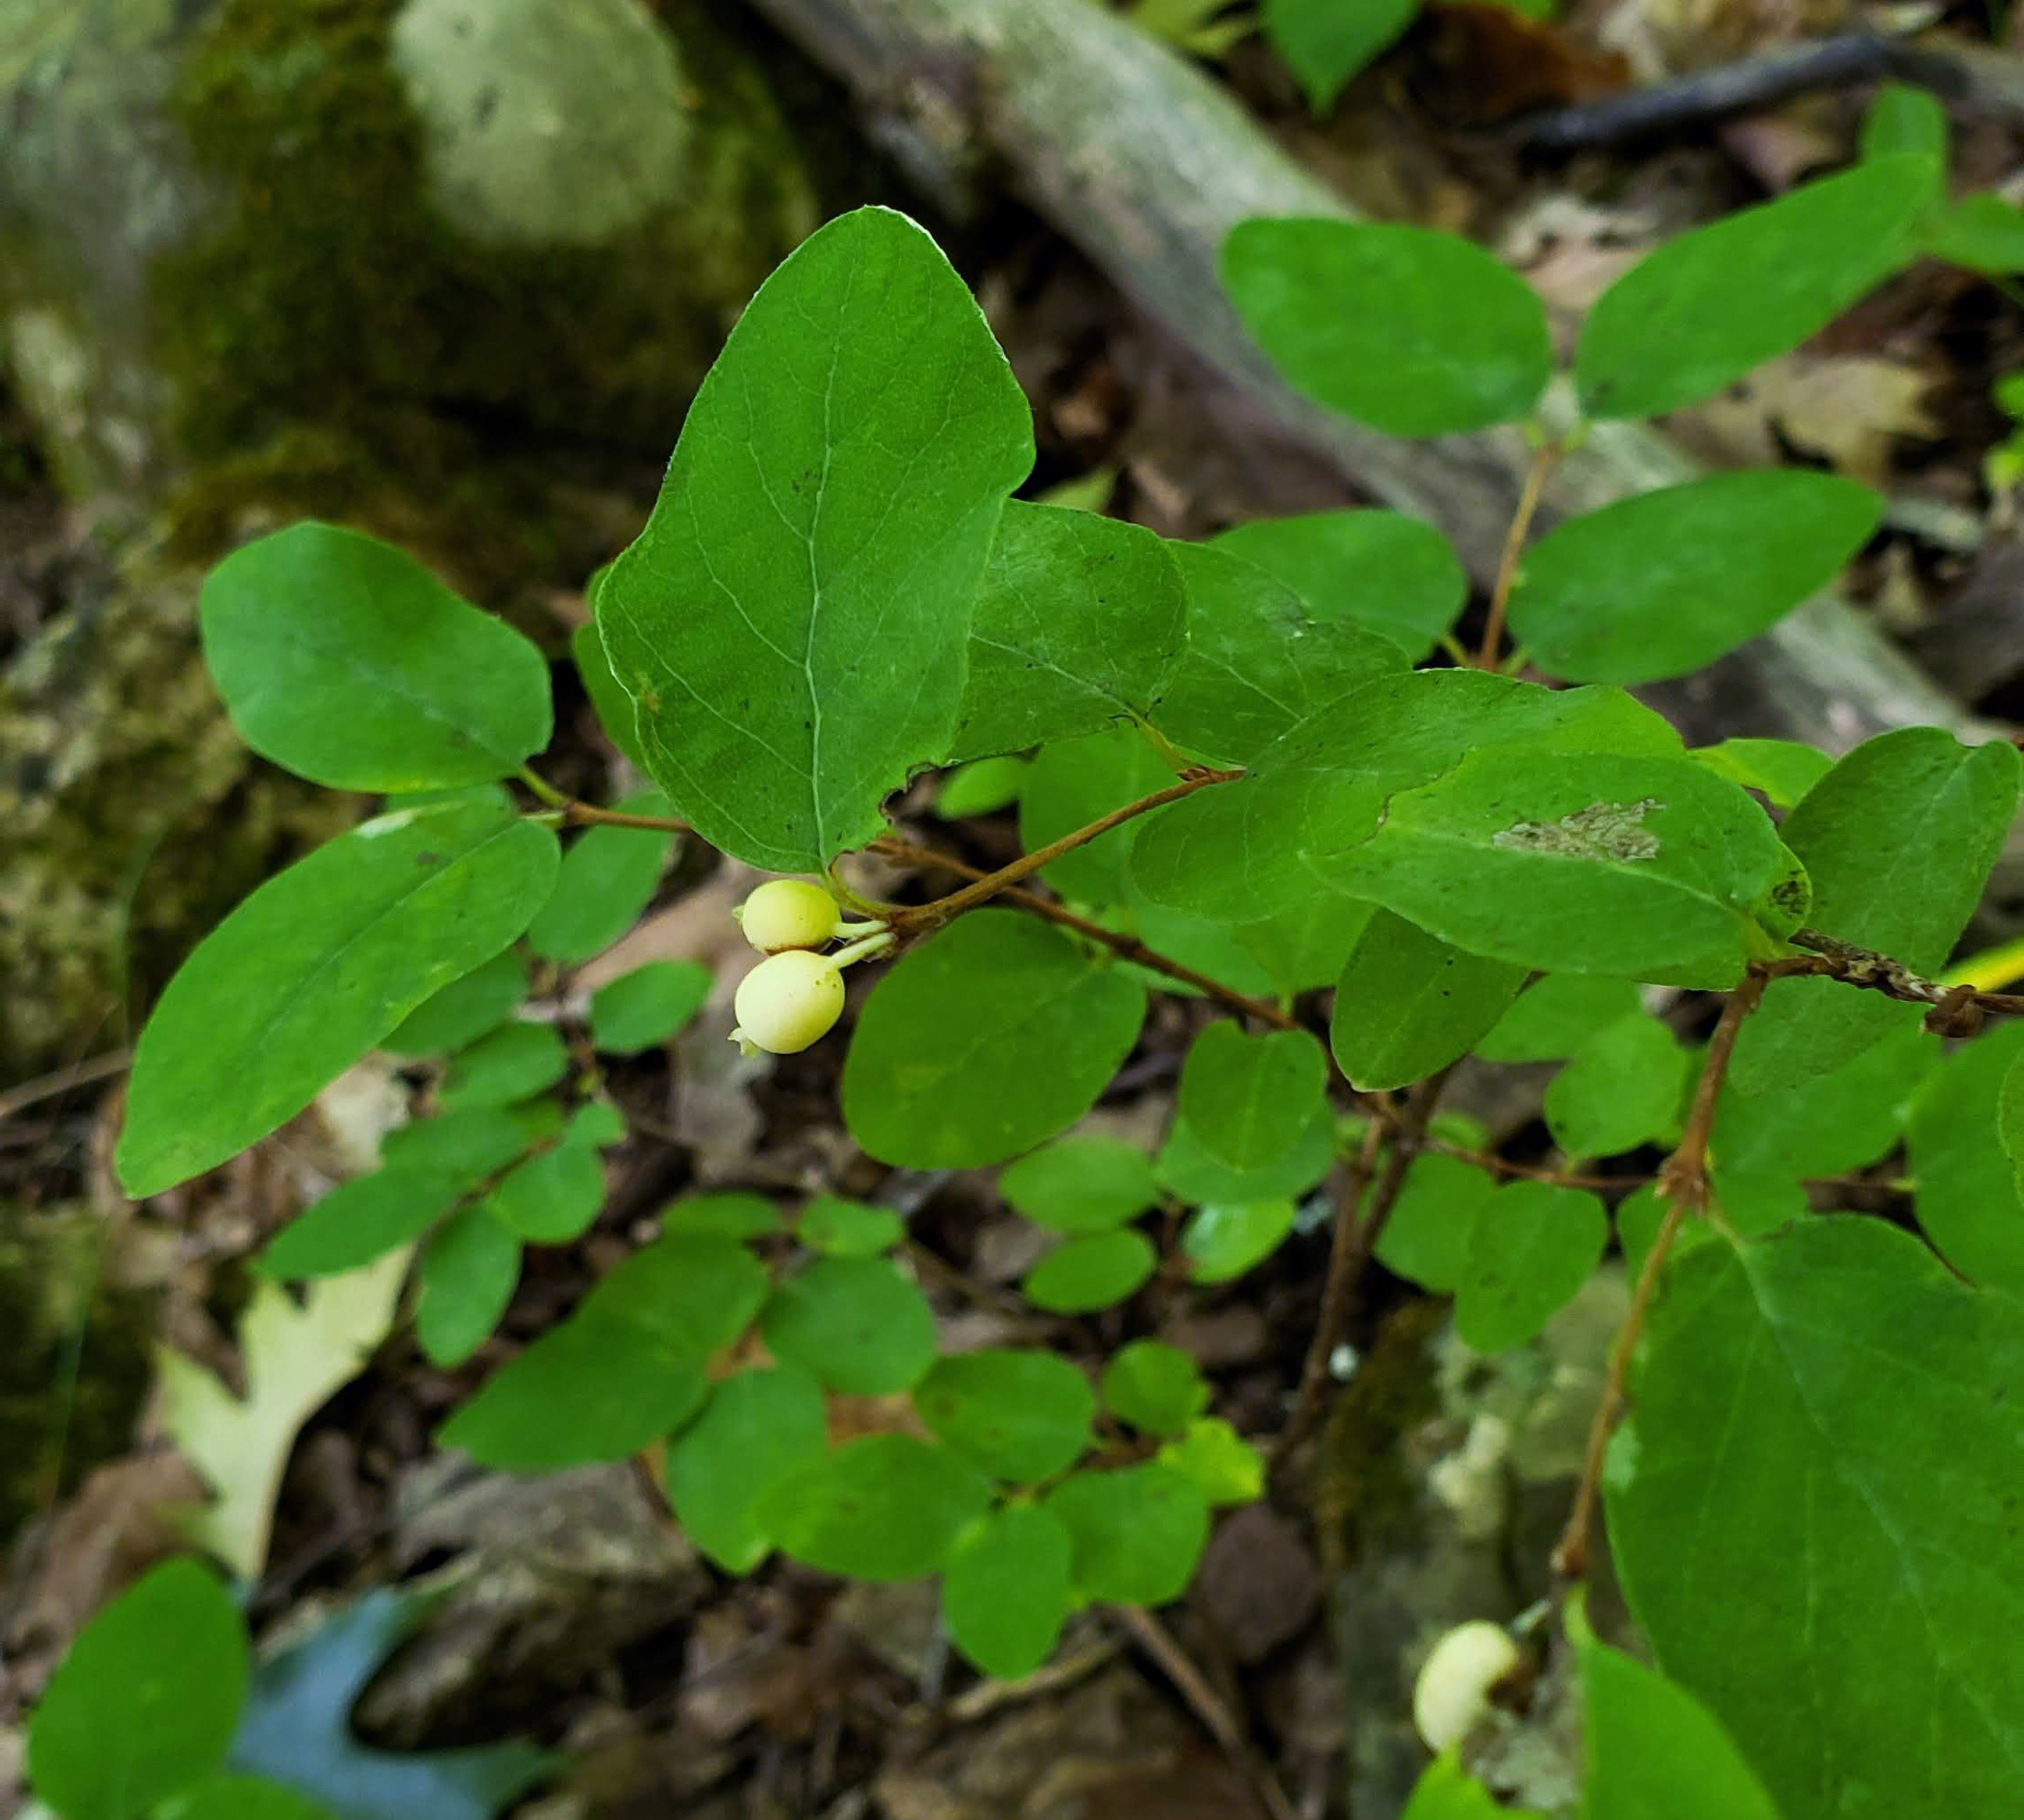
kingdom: Plantae
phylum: Tracheophyta
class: Magnoliopsida
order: Dipsacales
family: Caprifoliaceae
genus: Symphoricarpos
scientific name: Symphoricarpos albus
